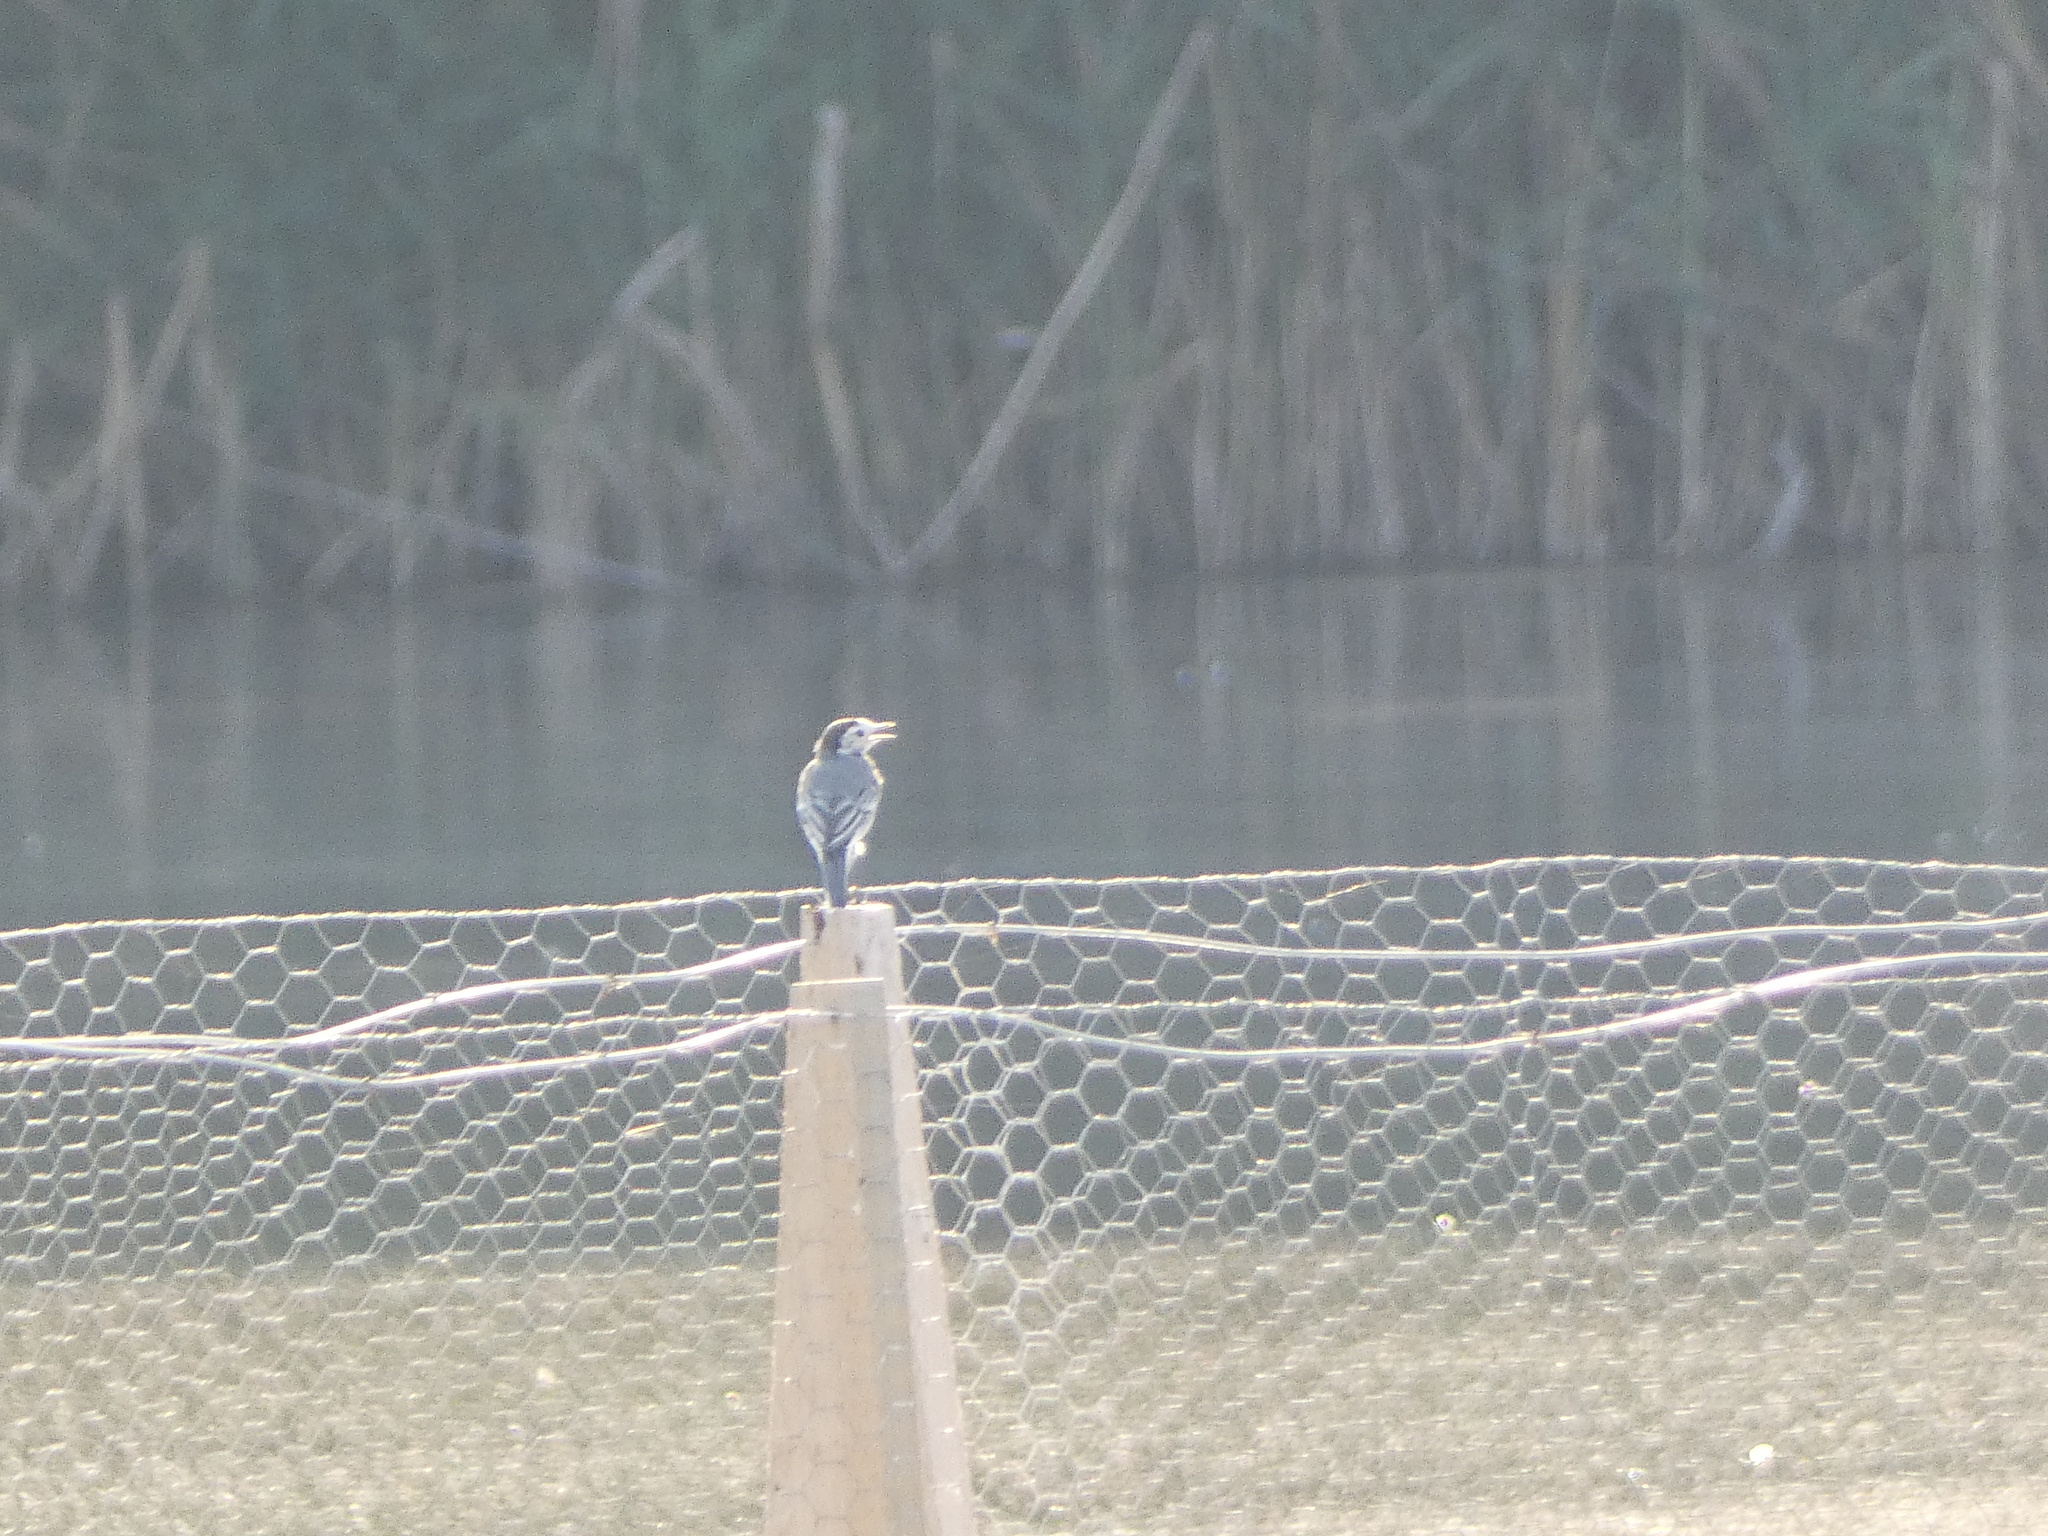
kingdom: Animalia
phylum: Chordata
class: Aves
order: Passeriformes
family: Motacillidae
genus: Motacilla
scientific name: Motacilla alba
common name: White wagtail
